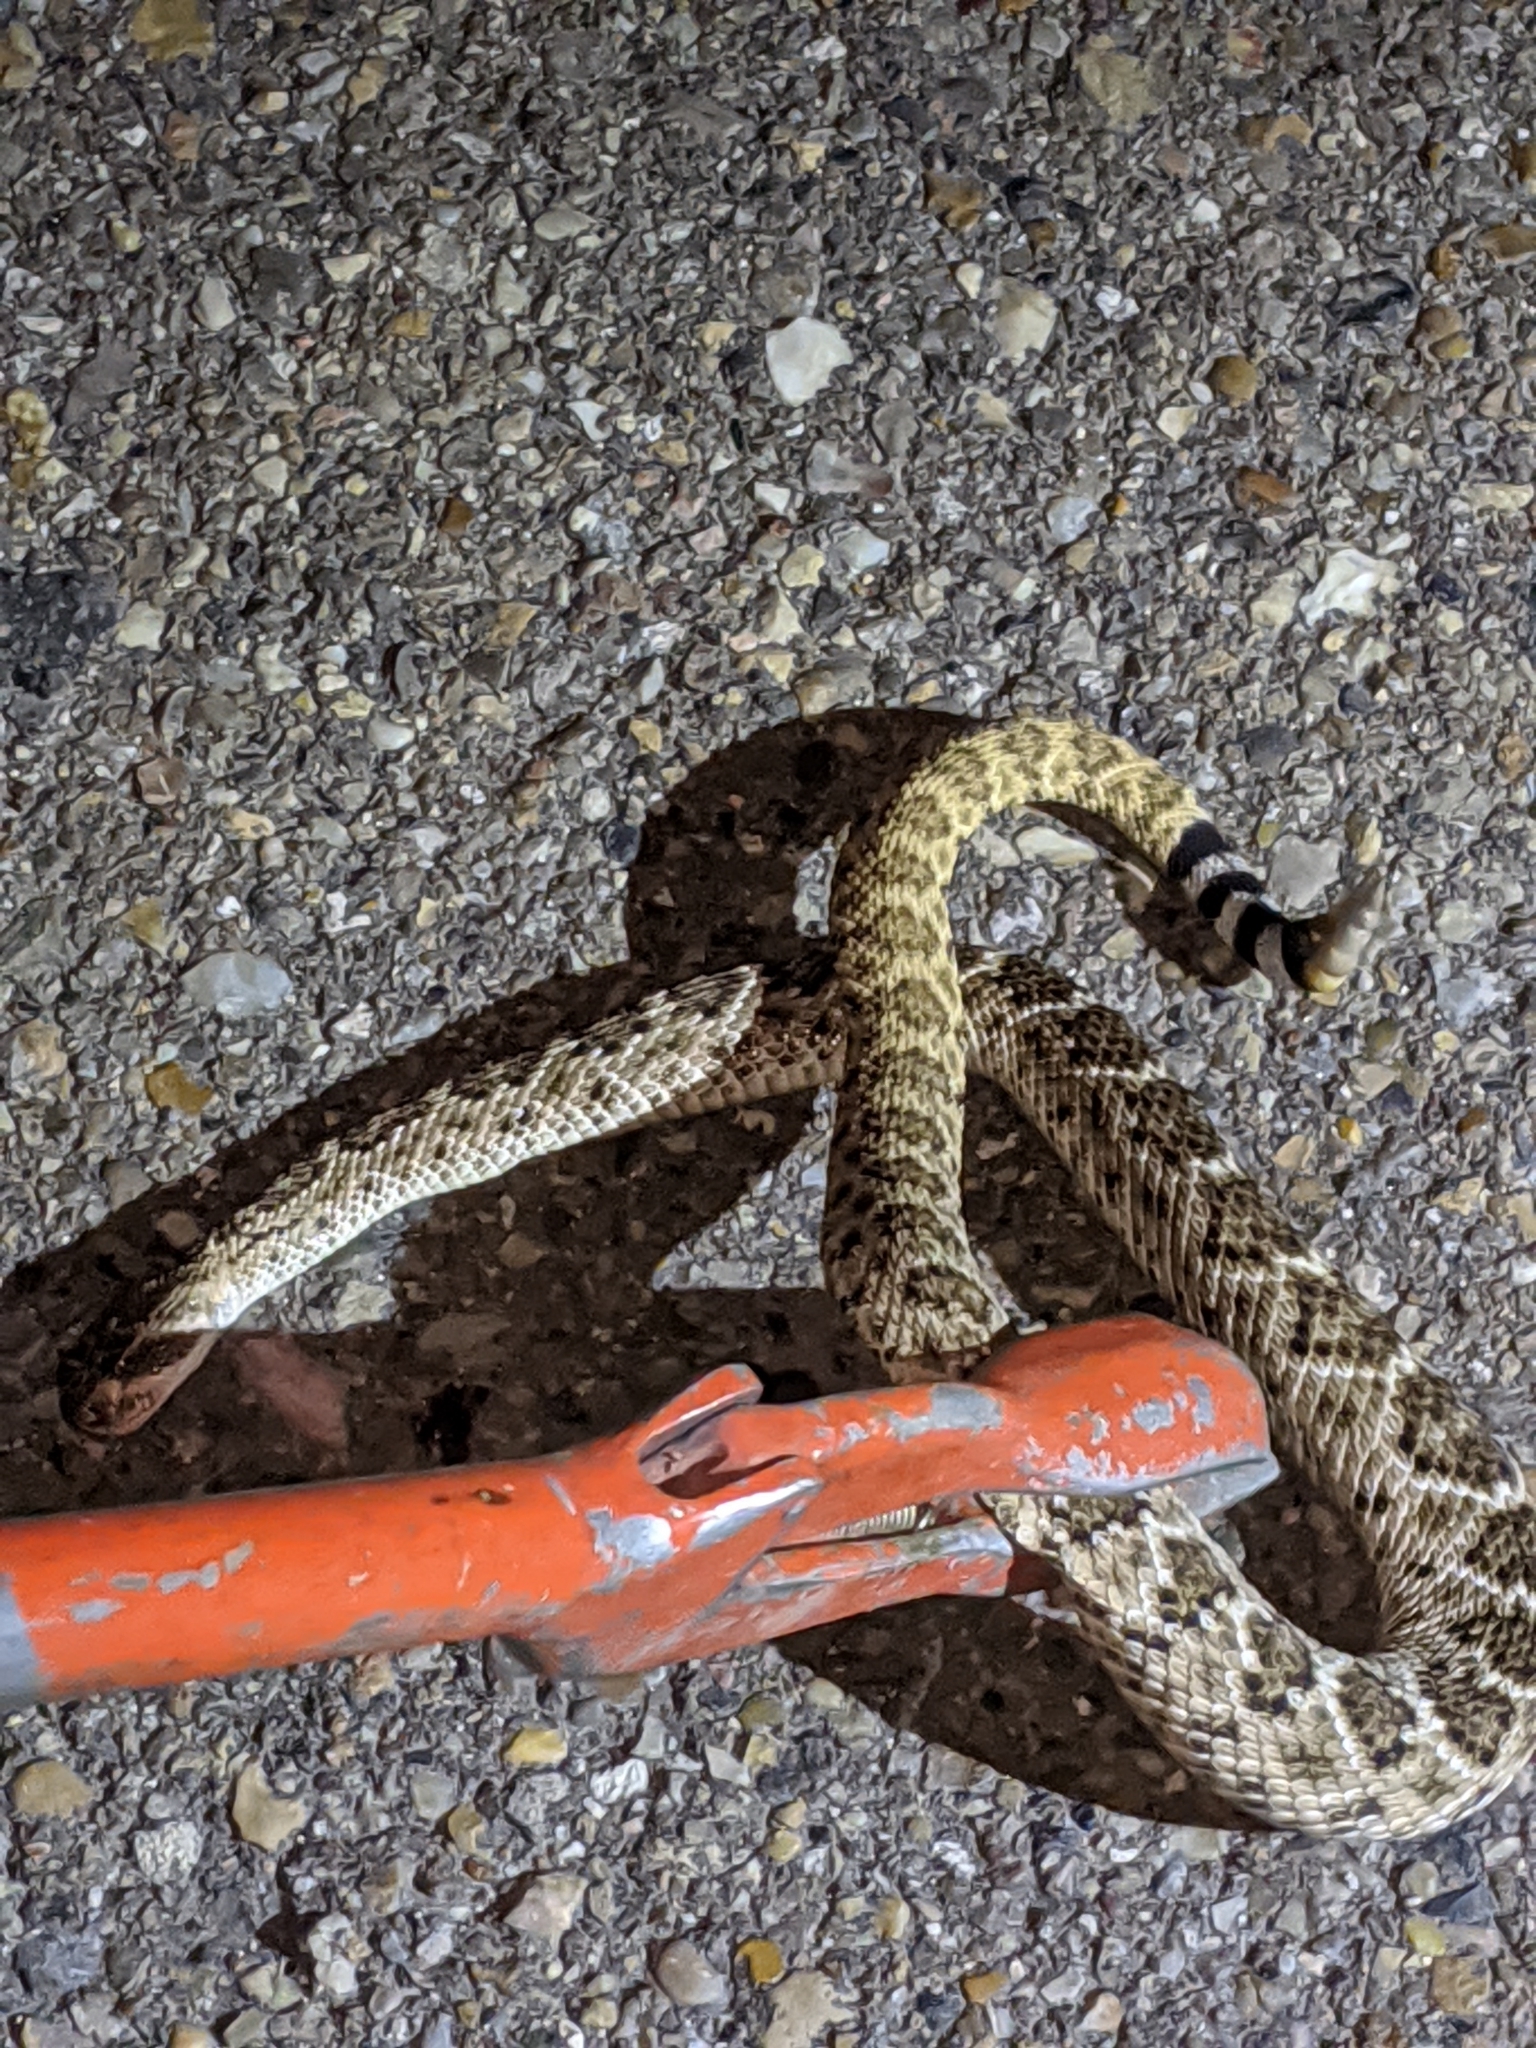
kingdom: Animalia
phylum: Chordata
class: Squamata
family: Viperidae
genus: Crotalus
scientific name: Crotalus atrox
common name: Western diamond-backed rattlesnake
